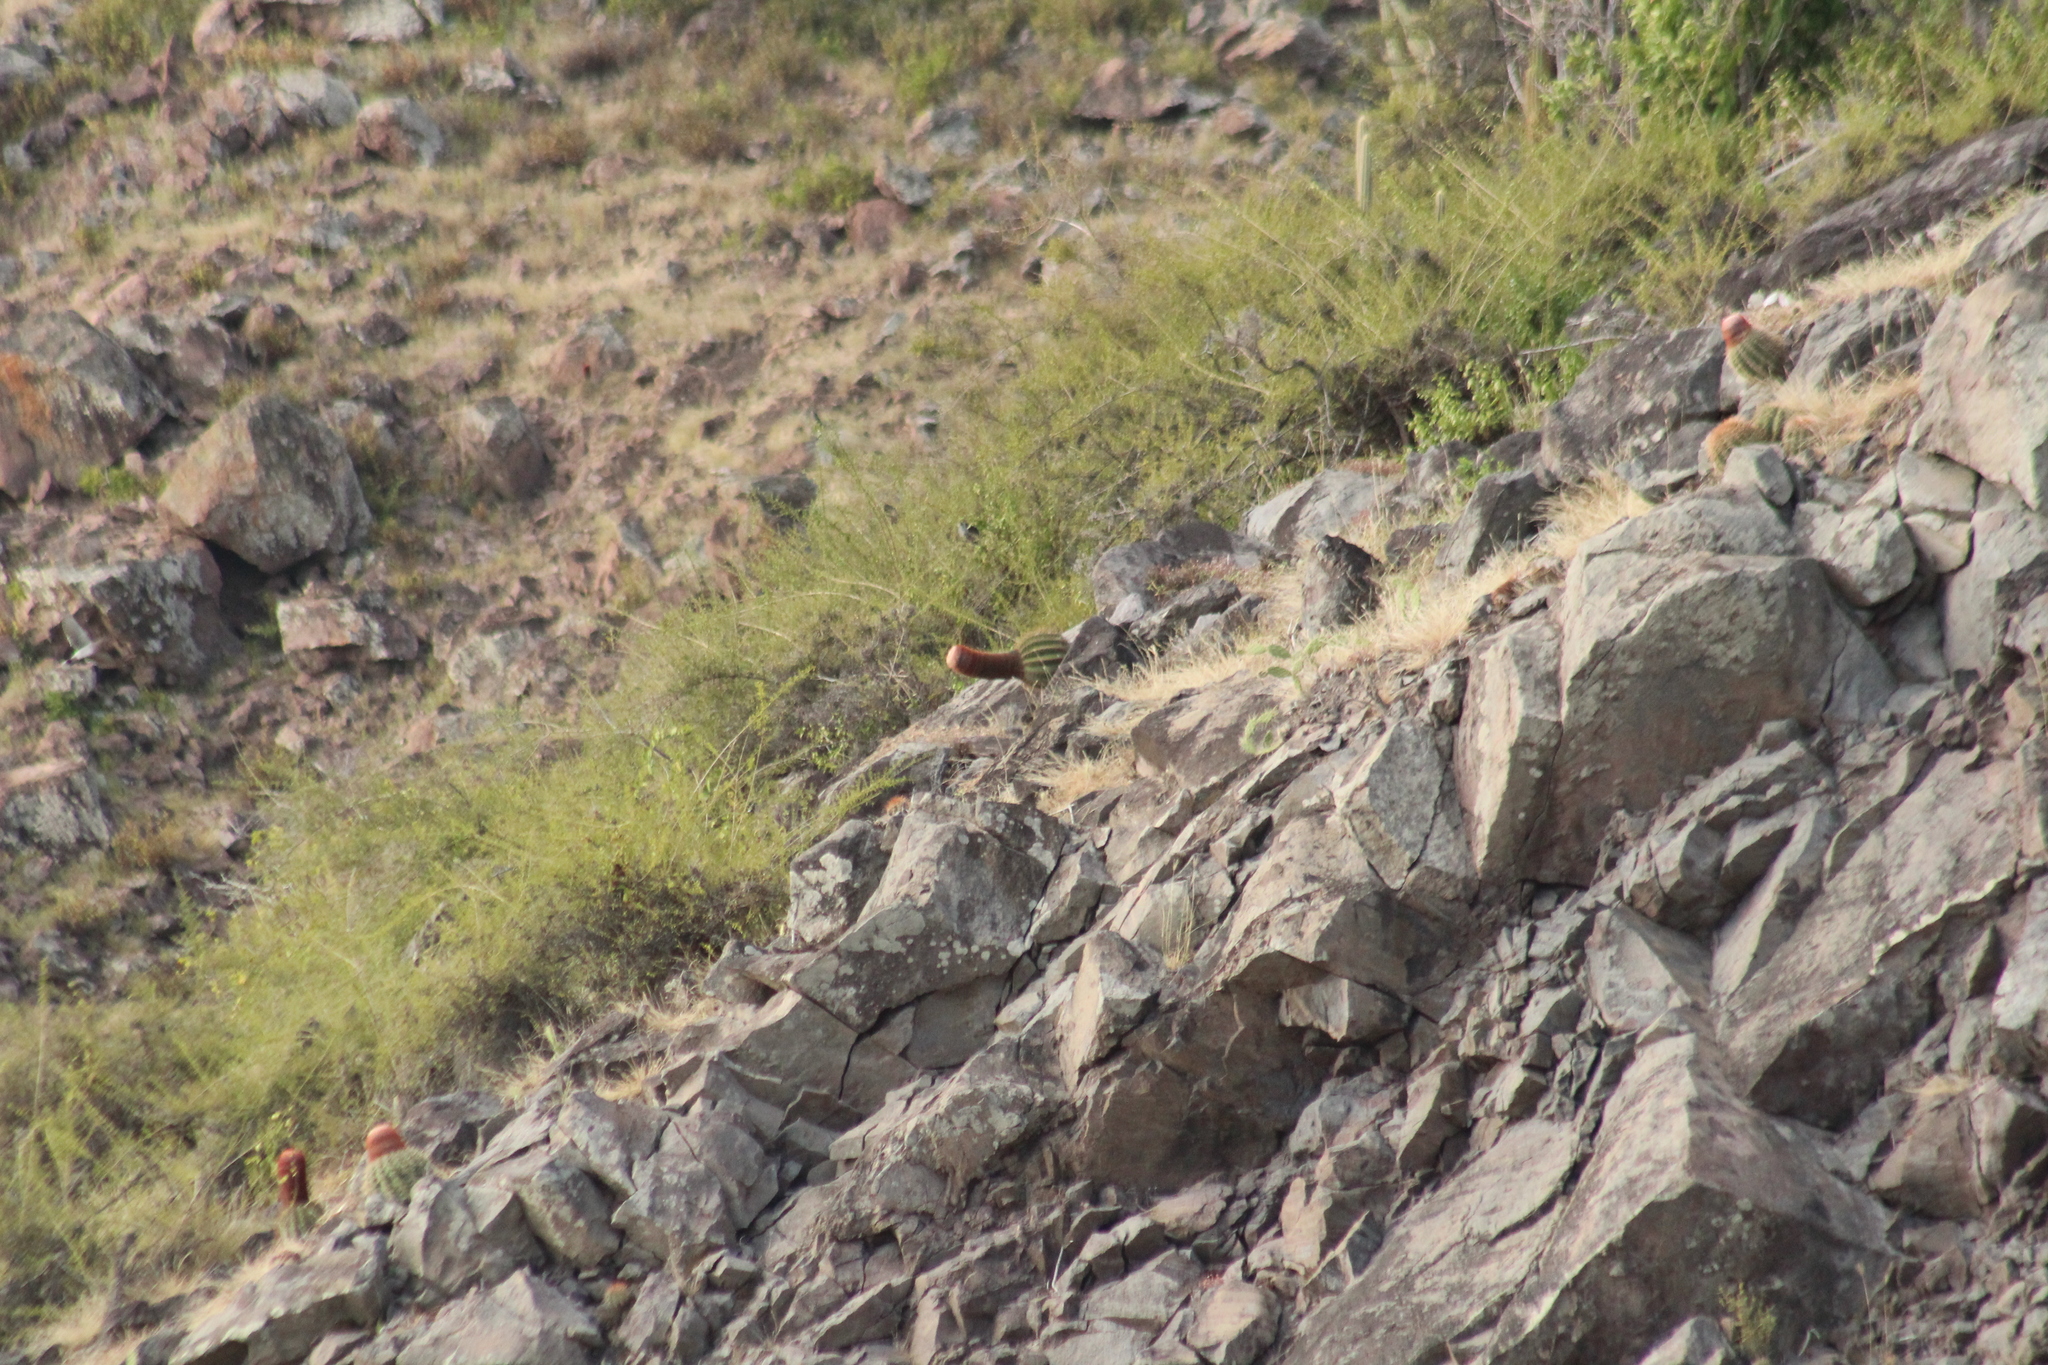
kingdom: Plantae
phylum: Tracheophyta
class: Magnoliopsida
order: Caryophyllales
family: Cactaceae
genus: Melocactus
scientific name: Melocactus intortus
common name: Barrel cactus
